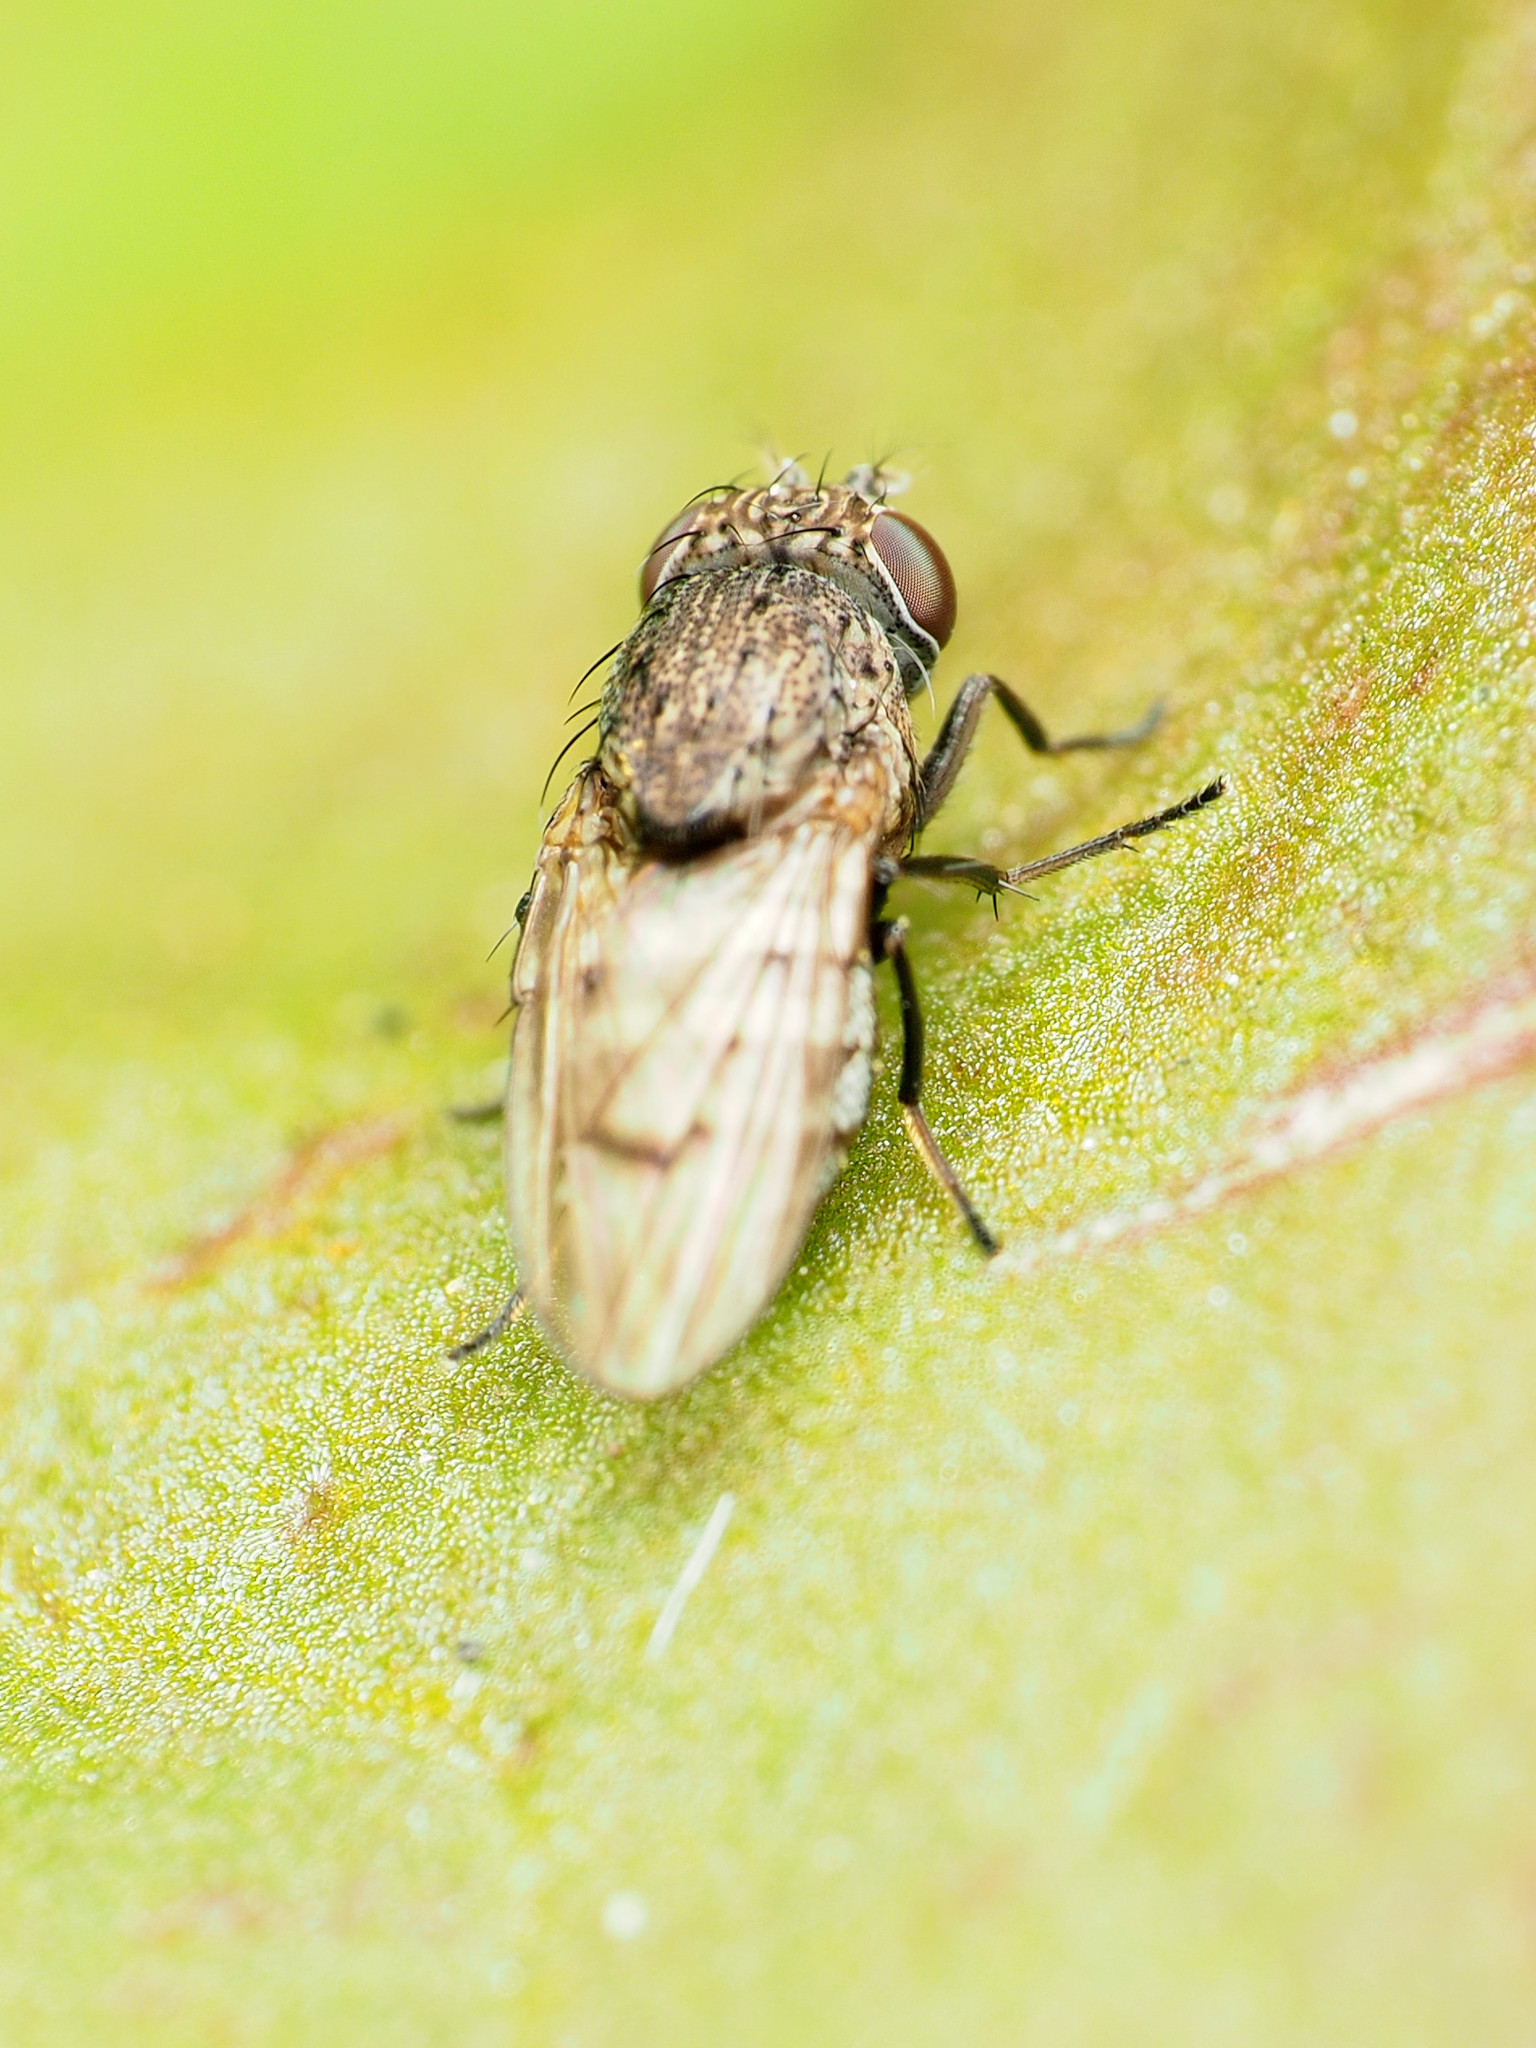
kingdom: Animalia
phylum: Arthropoda
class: Insecta
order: Diptera
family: Ephydridae
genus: Paralimna
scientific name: Paralimna punctipennis
